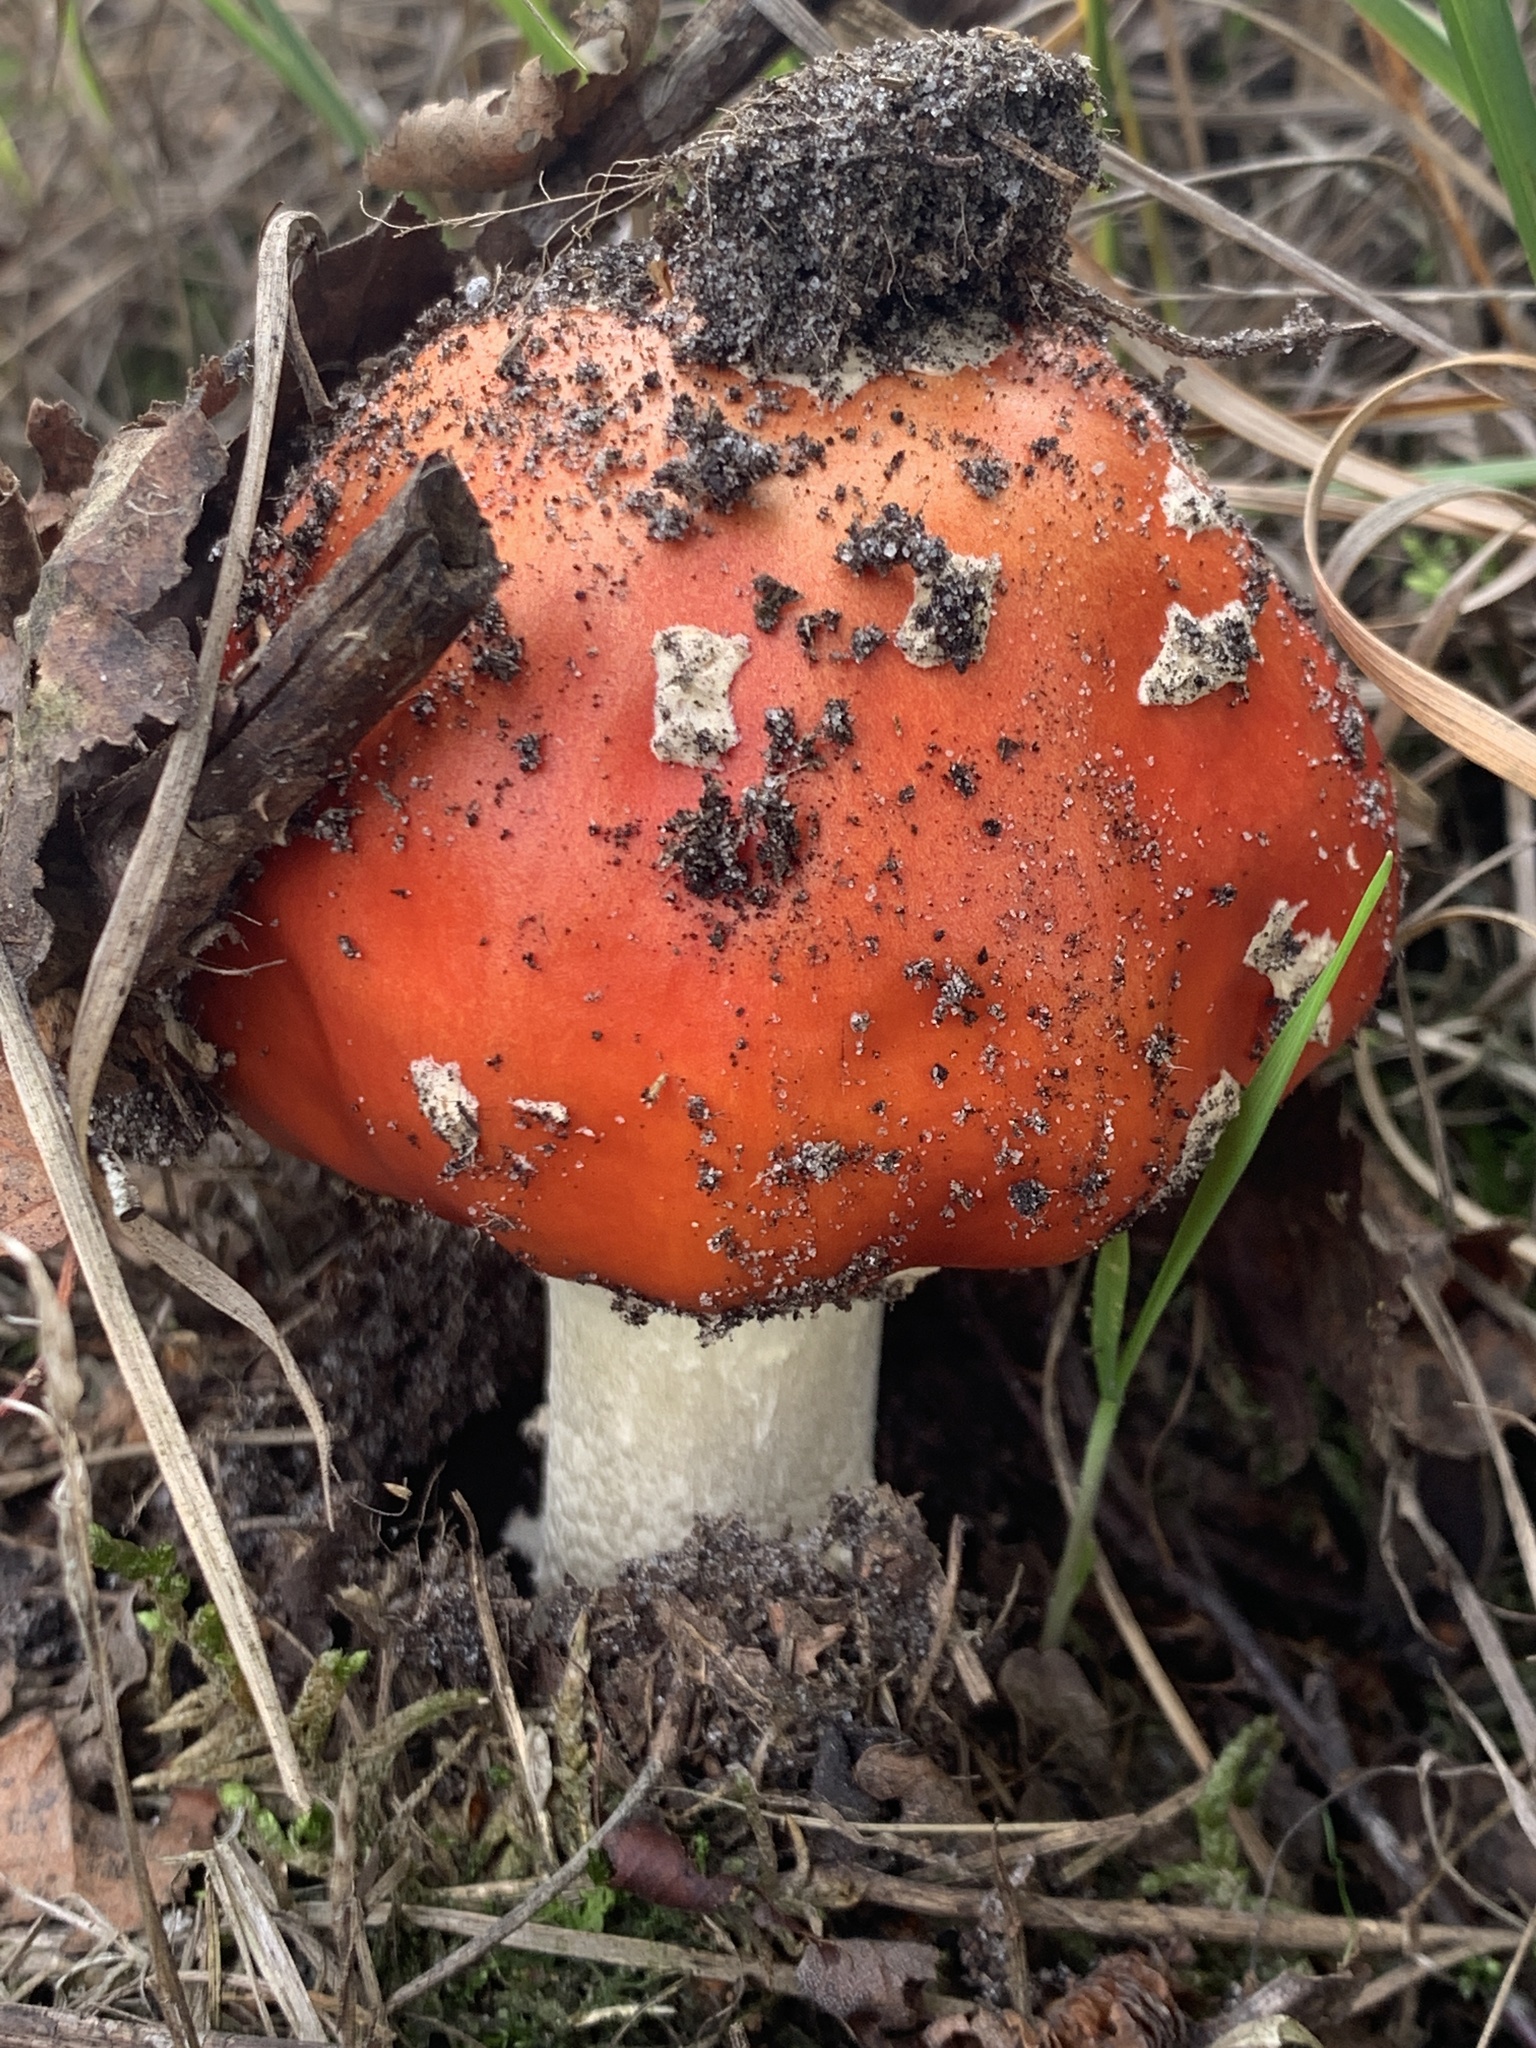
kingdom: Fungi
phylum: Basidiomycota
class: Agaricomycetes
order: Agaricales
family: Amanitaceae
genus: Amanita
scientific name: Amanita muscaria
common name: Fly agaric
